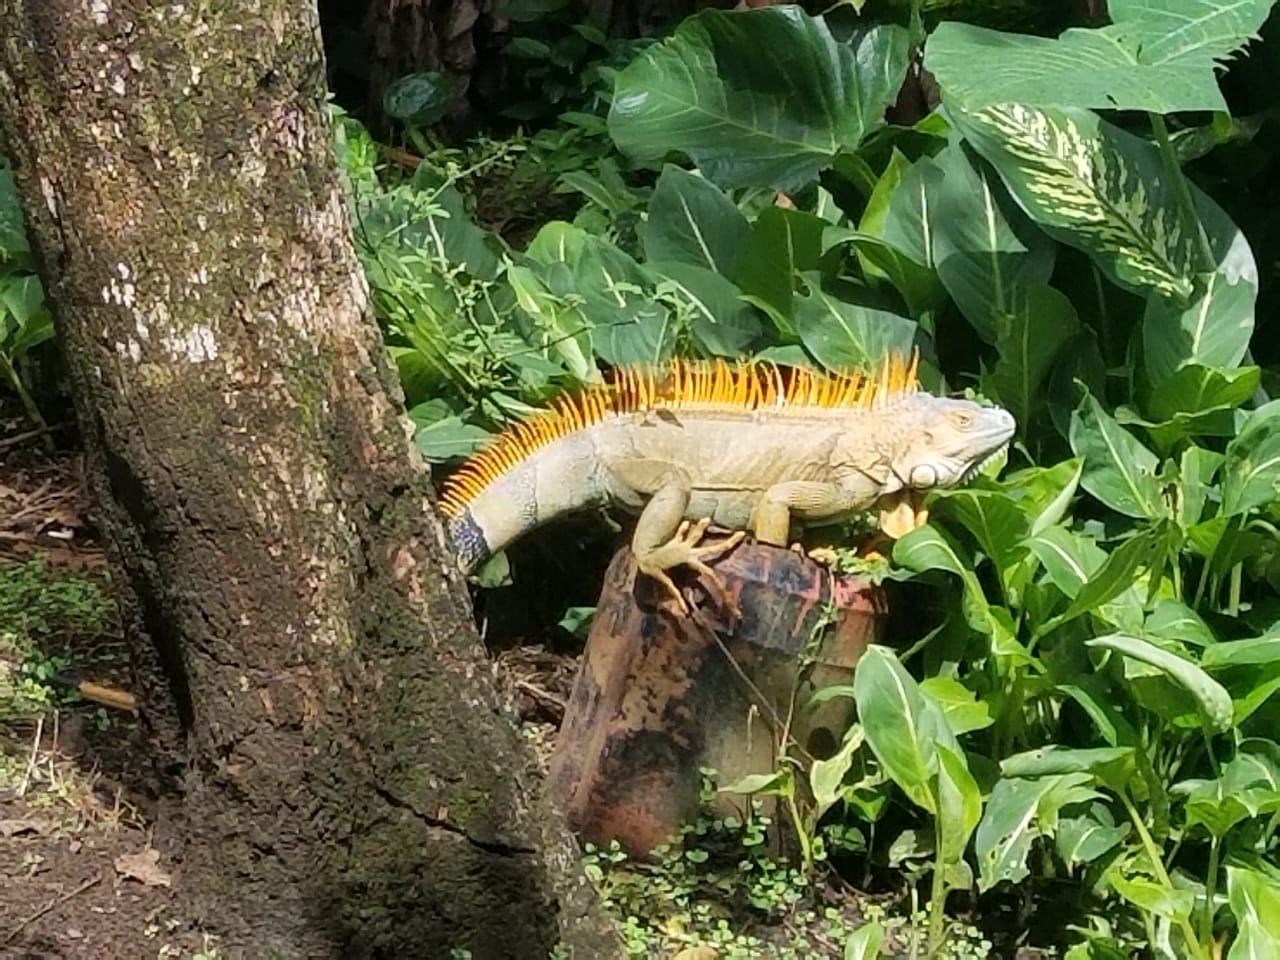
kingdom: Animalia
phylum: Chordata
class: Squamata
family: Iguanidae
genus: Iguana
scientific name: Iguana iguana
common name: Green iguana
